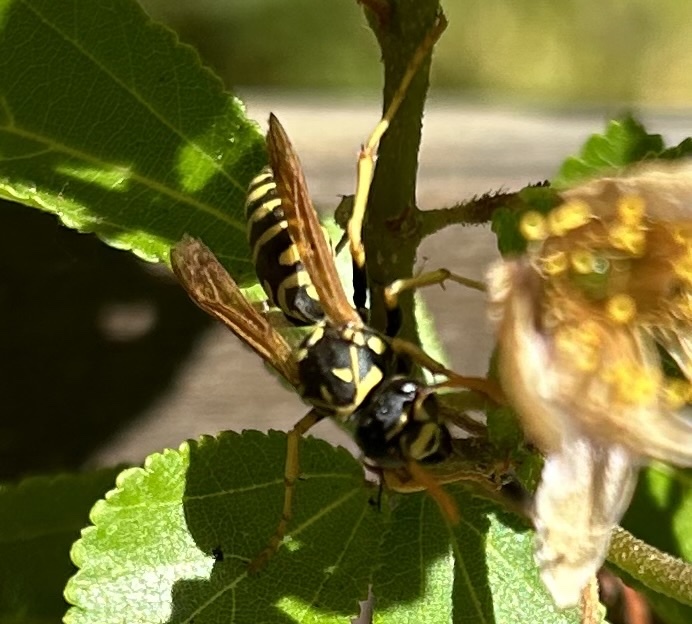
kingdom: Animalia
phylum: Arthropoda
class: Insecta
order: Hymenoptera
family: Eumenidae
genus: Polistes
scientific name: Polistes dominula
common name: Paper wasp
